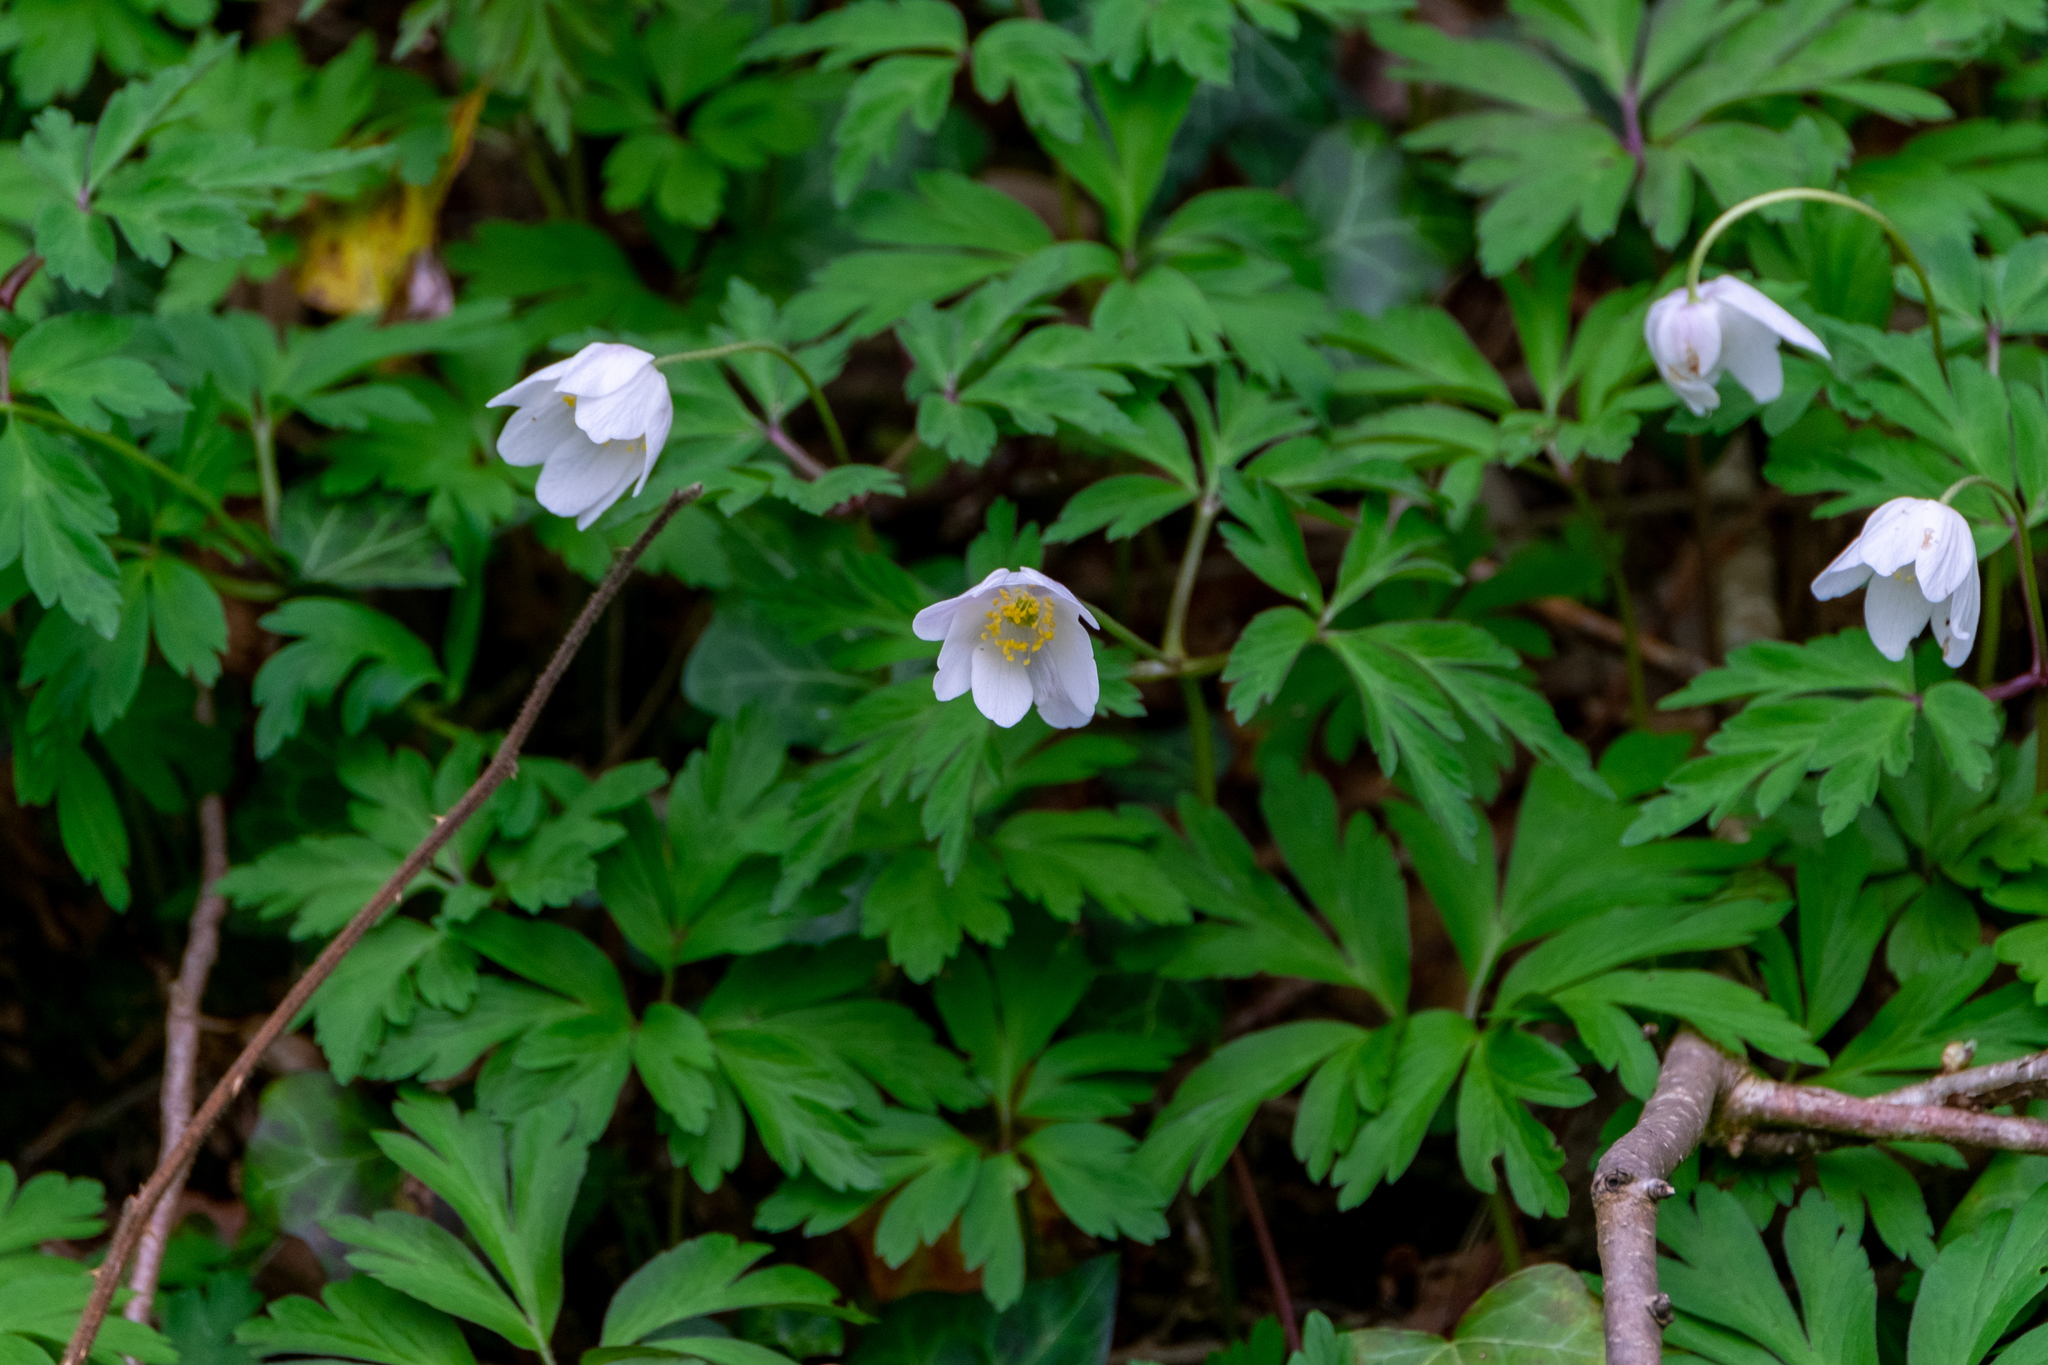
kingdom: Plantae
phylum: Tracheophyta
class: Magnoliopsida
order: Ranunculales
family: Ranunculaceae
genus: Anemone
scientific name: Anemone nemorosa
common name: Wood anemone
